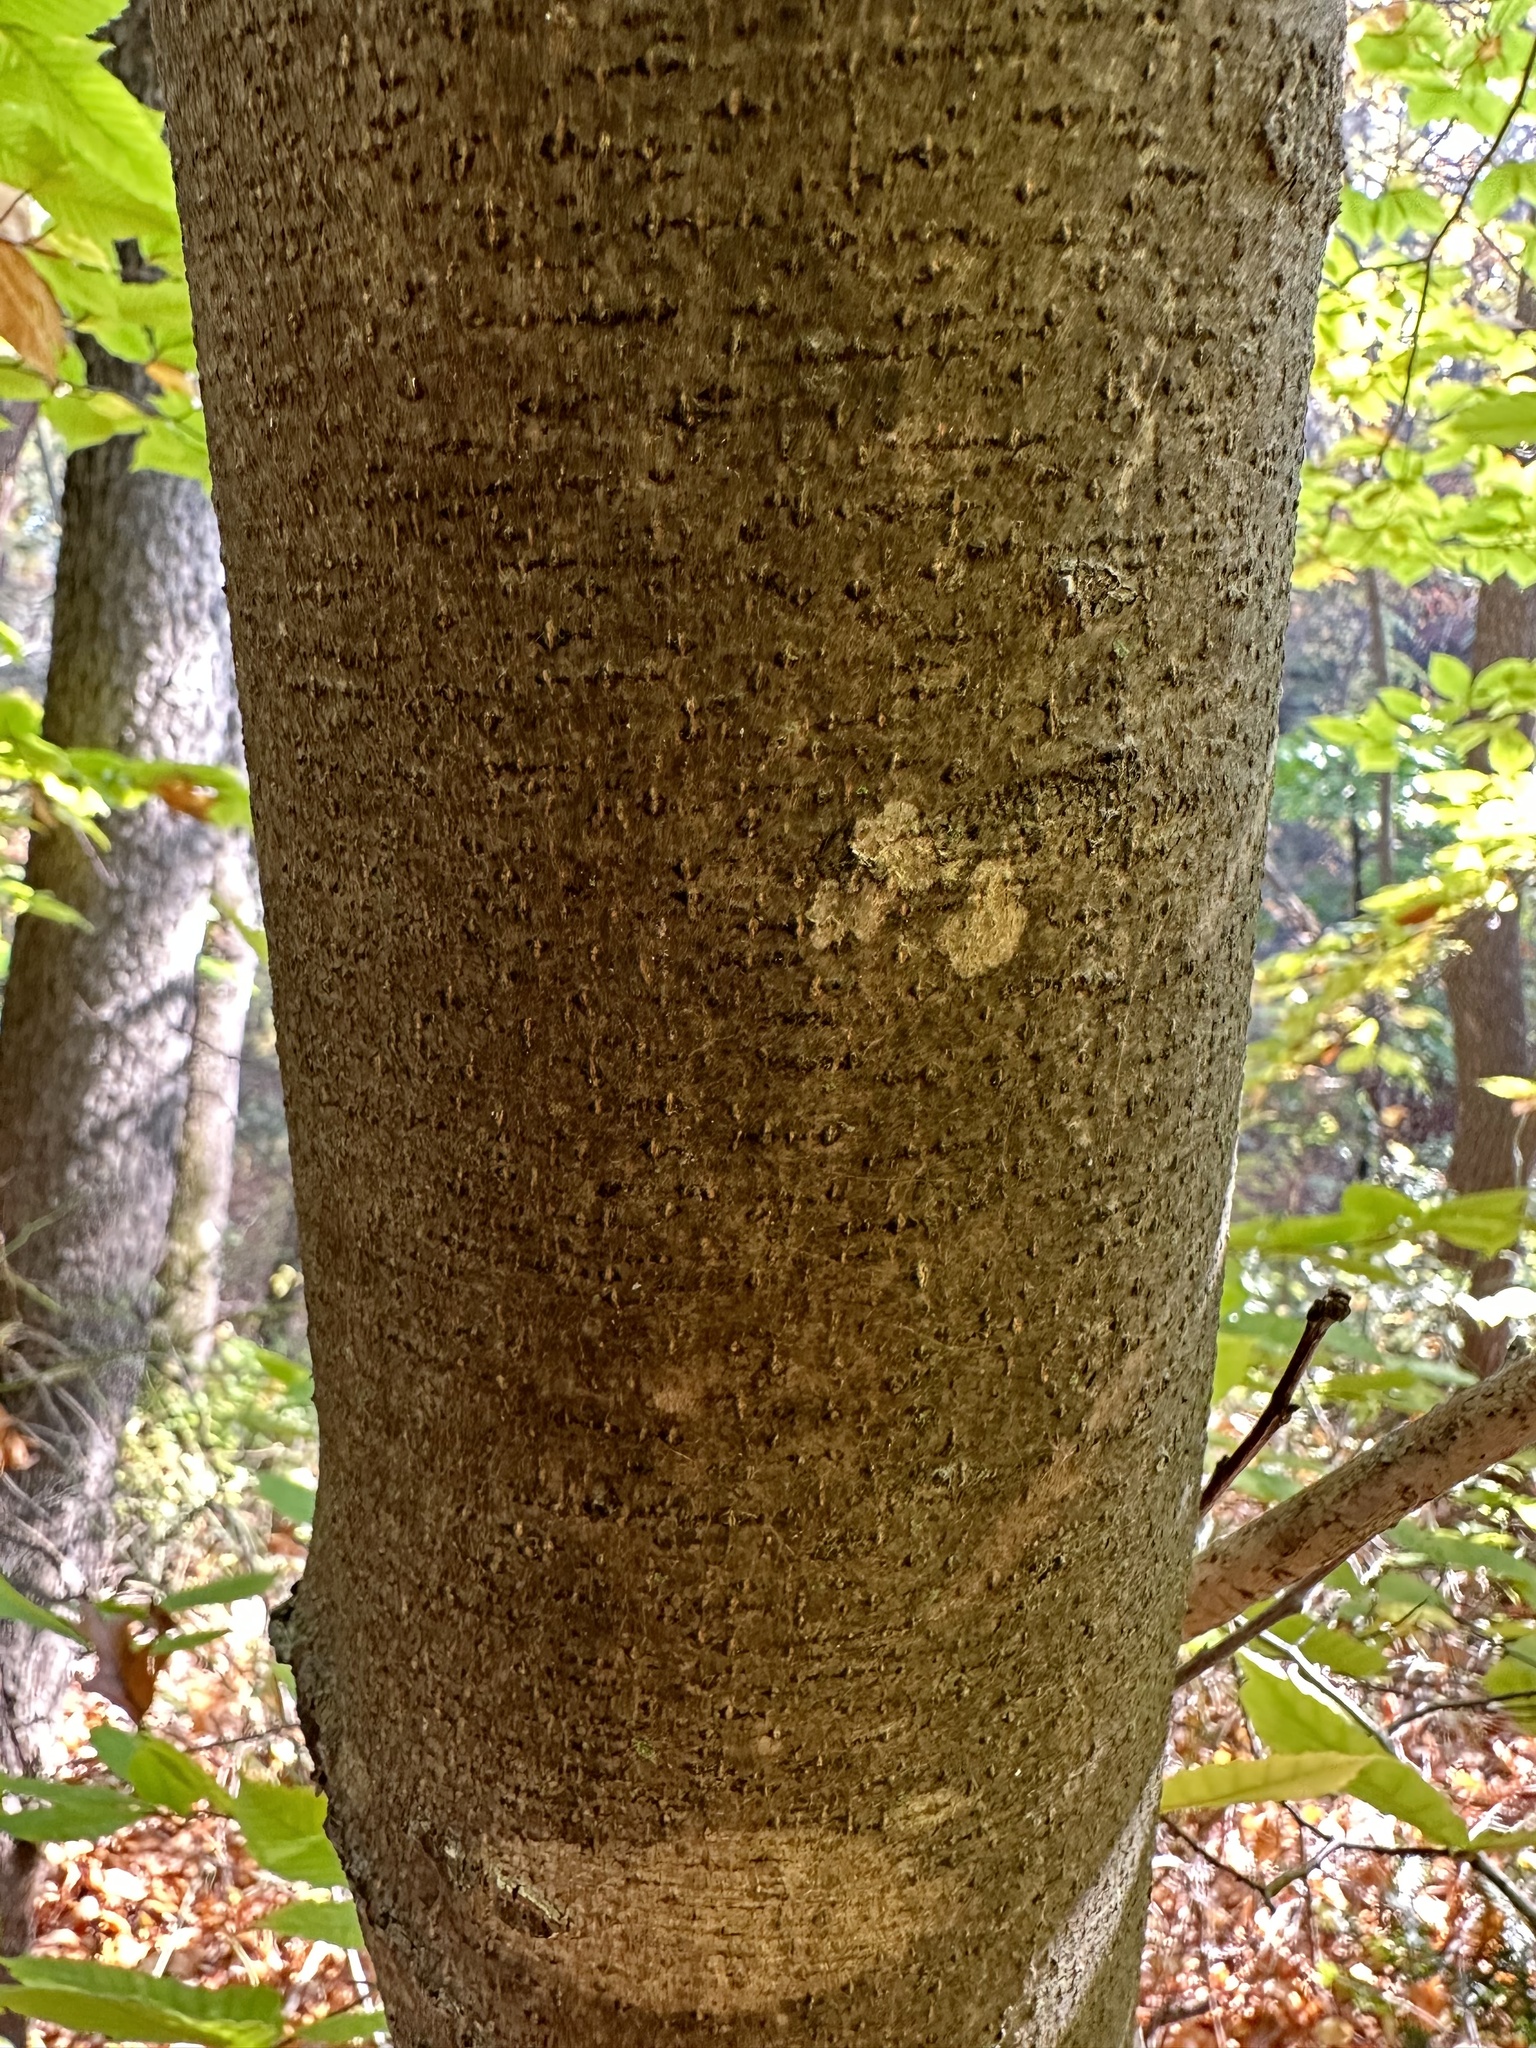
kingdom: Plantae
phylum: Tracheophyta
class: Magnoliopsida
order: Fagales
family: Fagaceae
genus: Fagus
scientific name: Fagus grandifolia
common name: American beech
